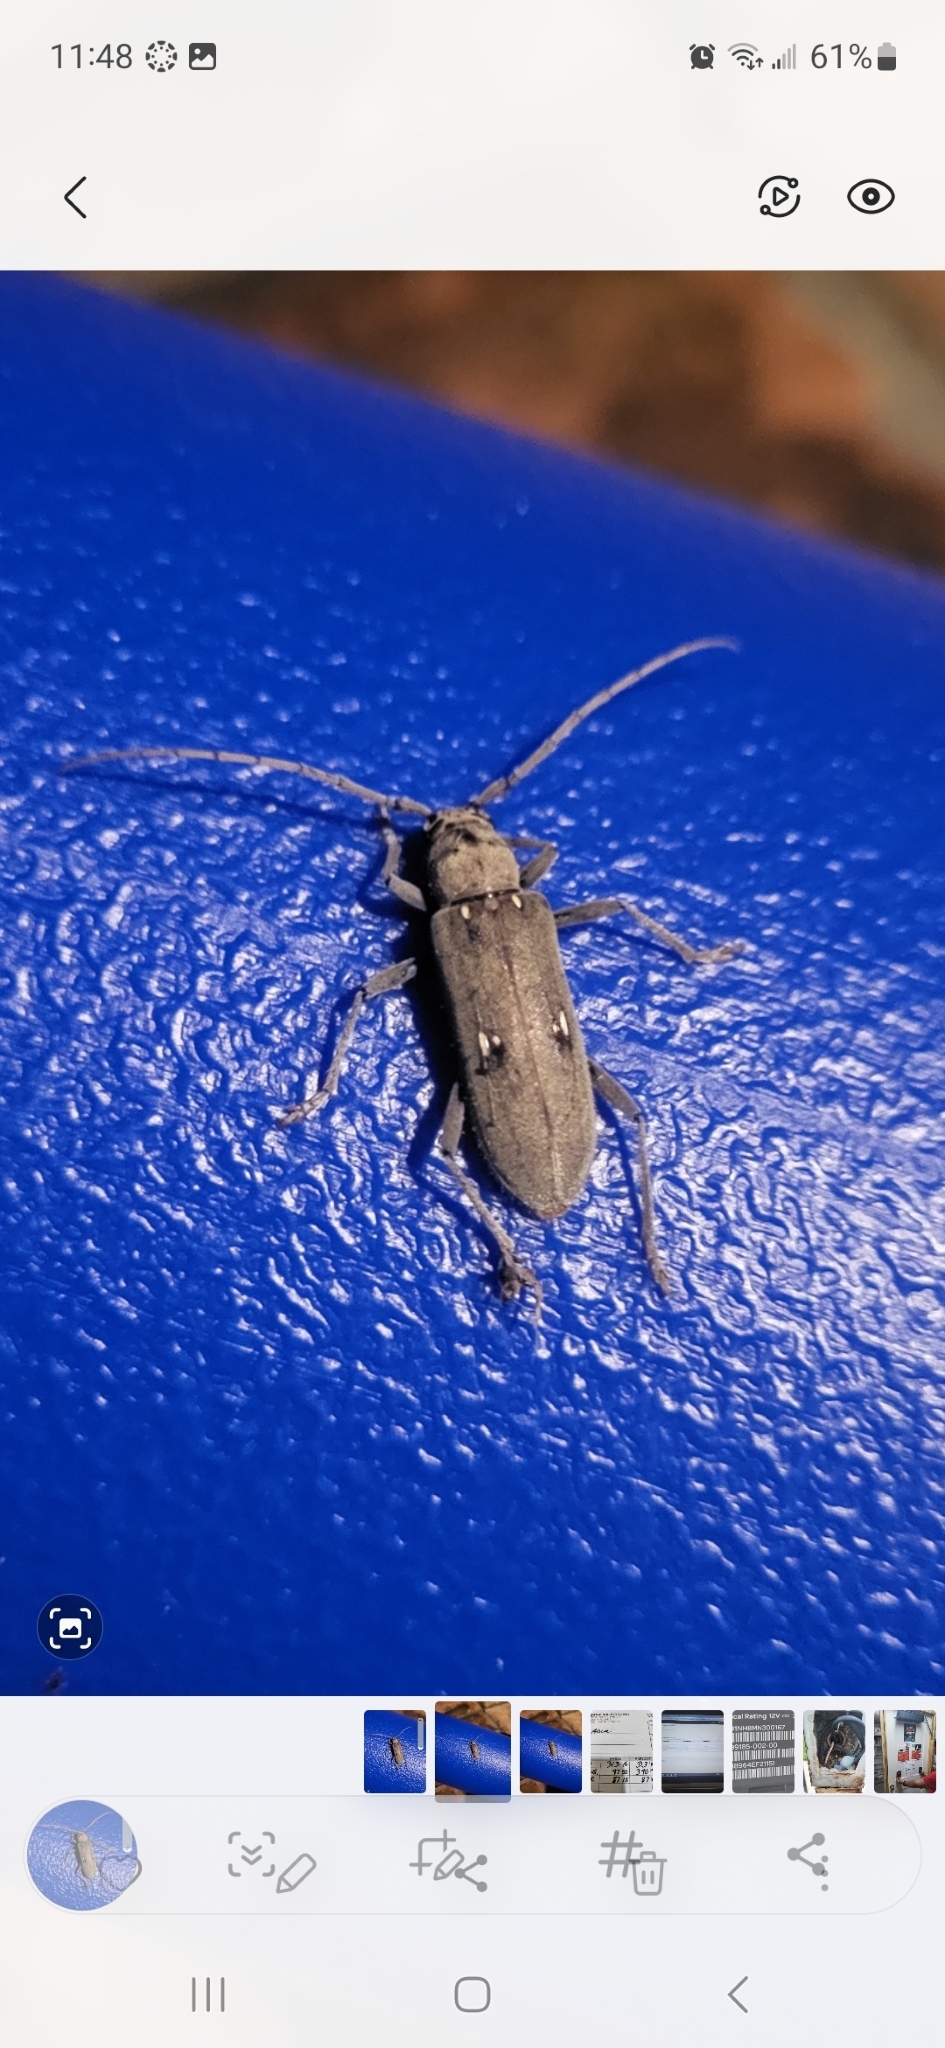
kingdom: Animalia
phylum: Arthropoda
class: Insecta
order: Coleoptera
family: Cerambycidae
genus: Eburia
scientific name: Eburia mutica
